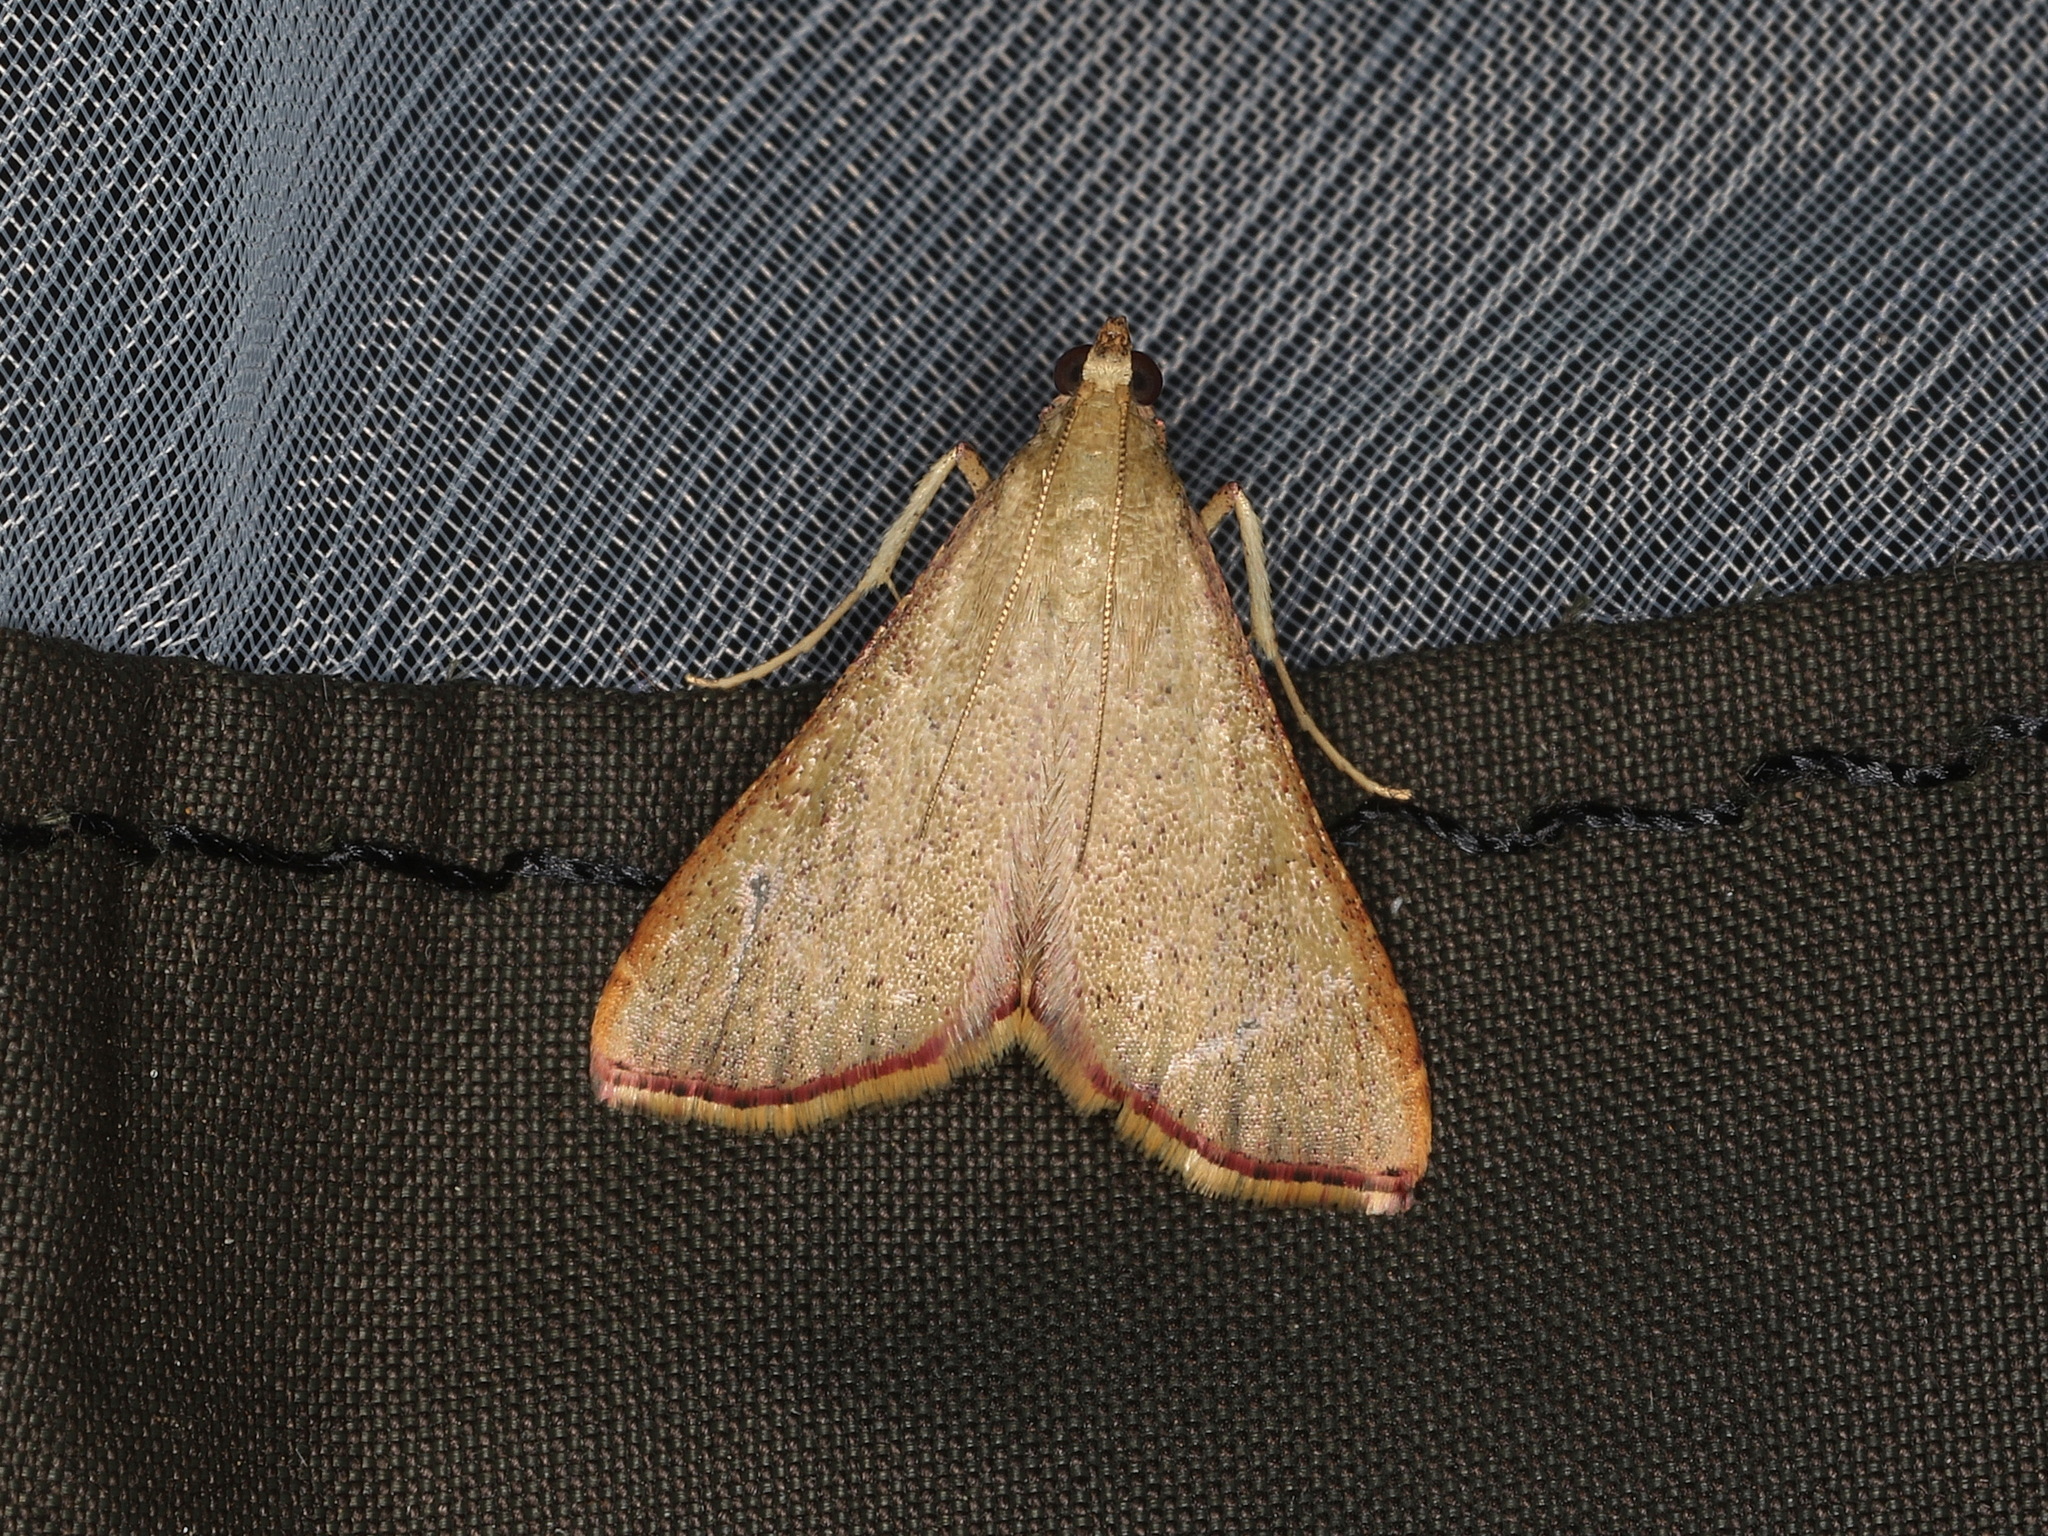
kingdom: Animalia
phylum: Arthropoda
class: Insecta
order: Lepidoptera
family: Pyralidae
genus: Endotricha
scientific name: Endotricha pyrosalis
